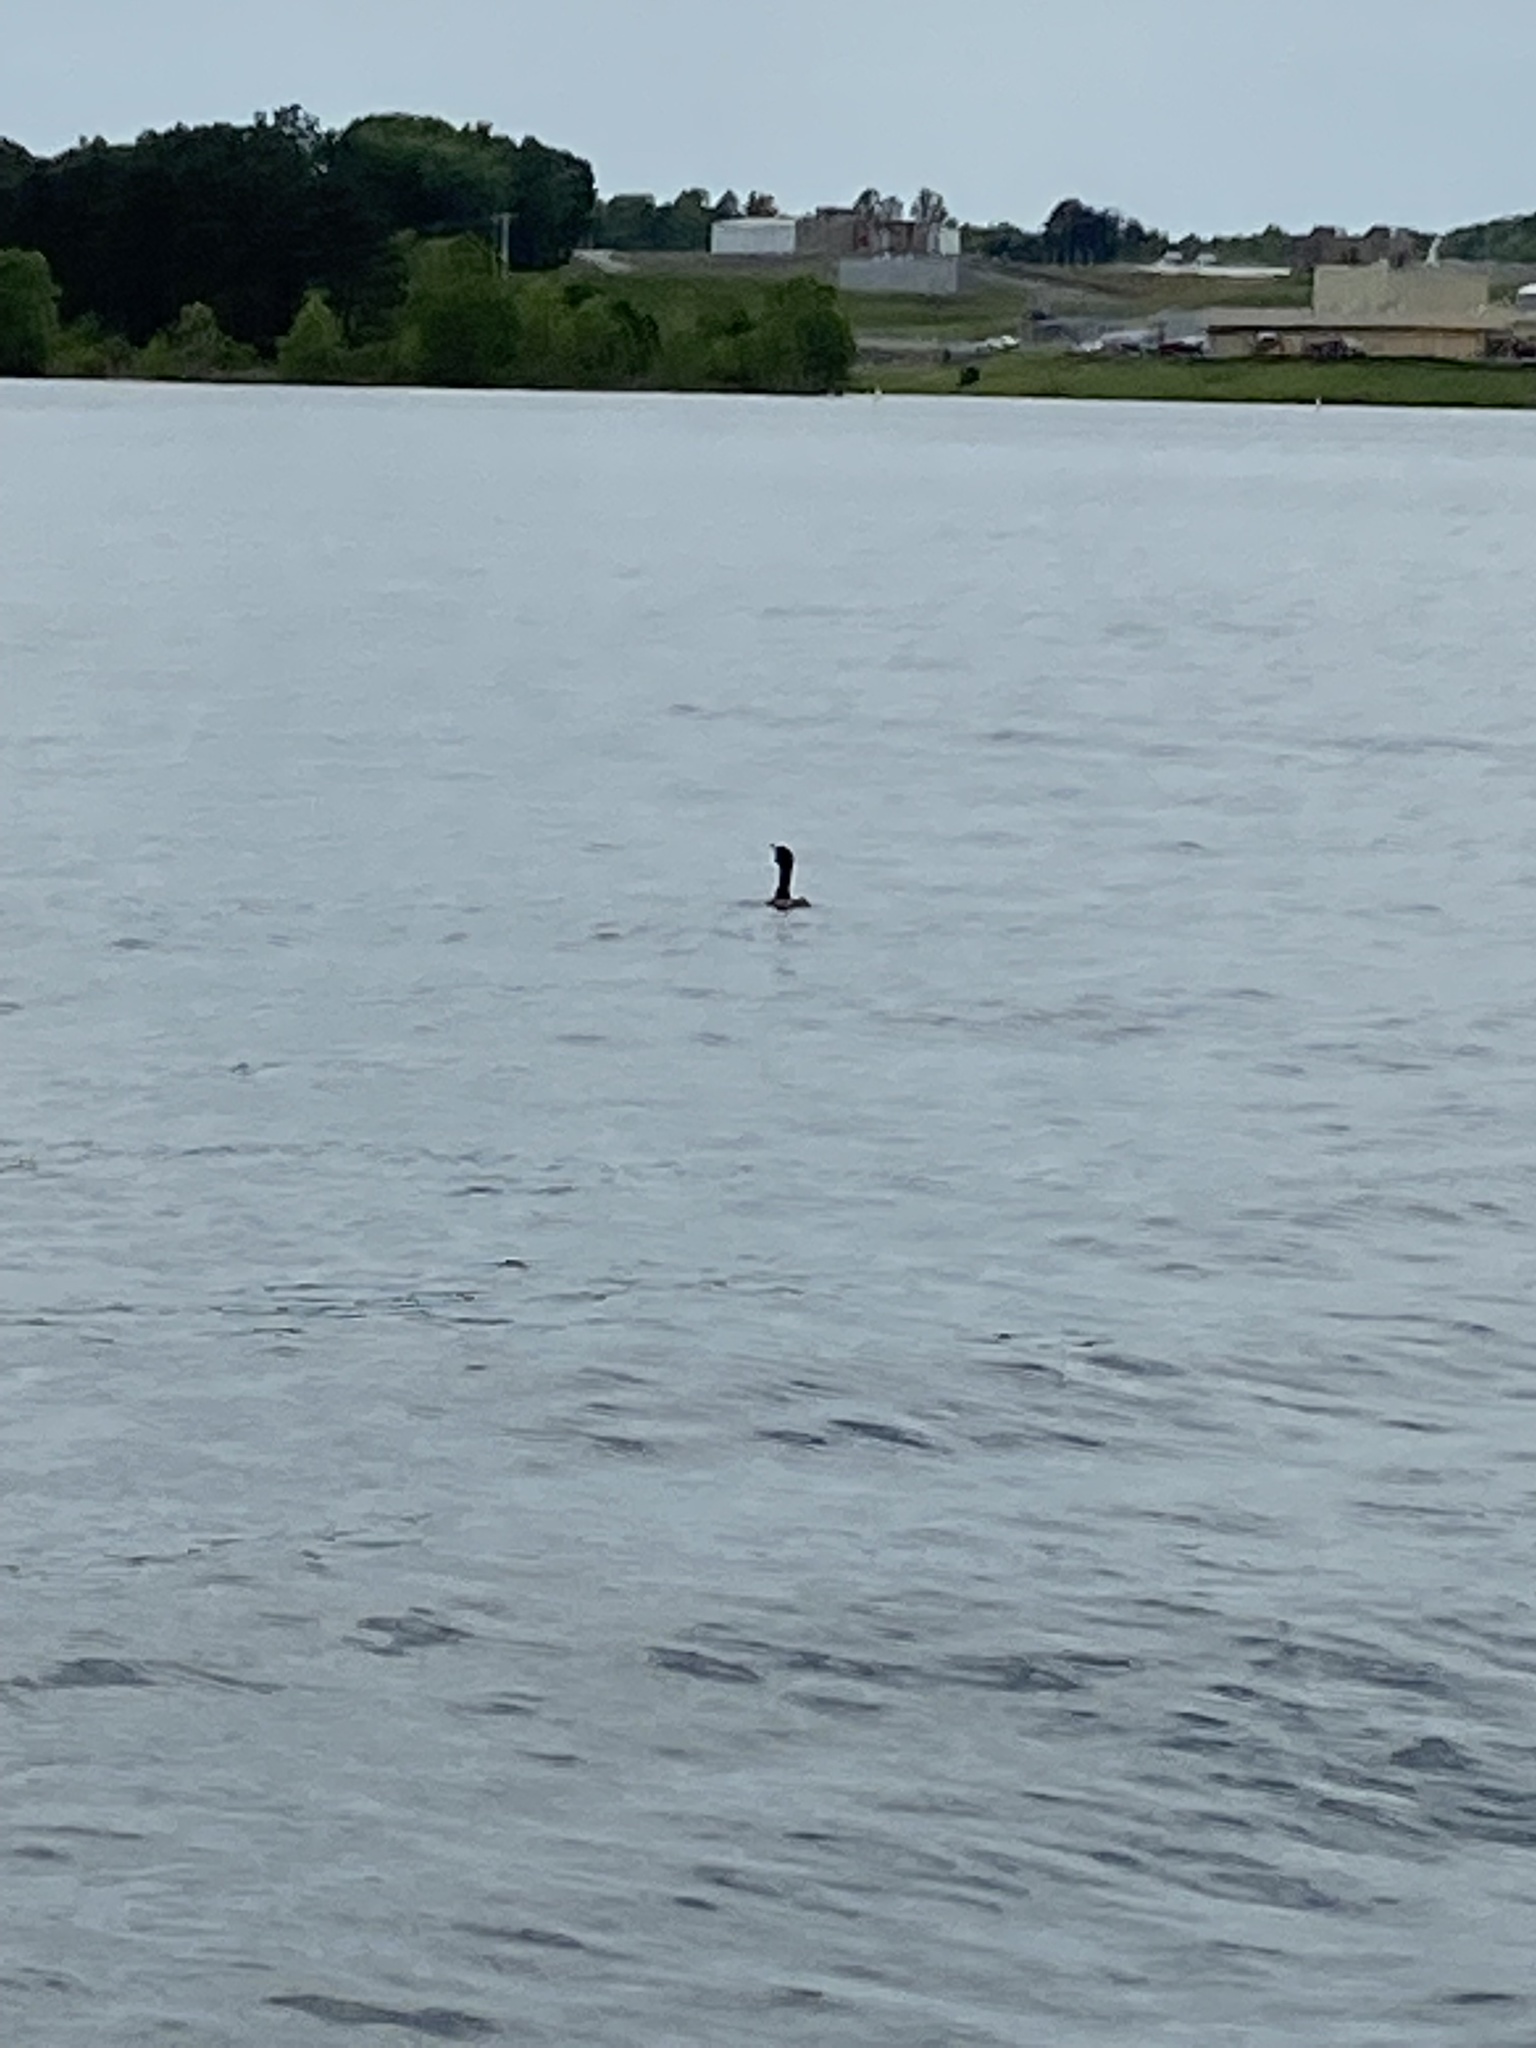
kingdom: Animalia
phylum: Chordata
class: Aves
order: Suliformes
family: Phalacrocoracidae
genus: Phalacrocorax
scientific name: Phalacrocorax auritus
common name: Double-crested cormorant
